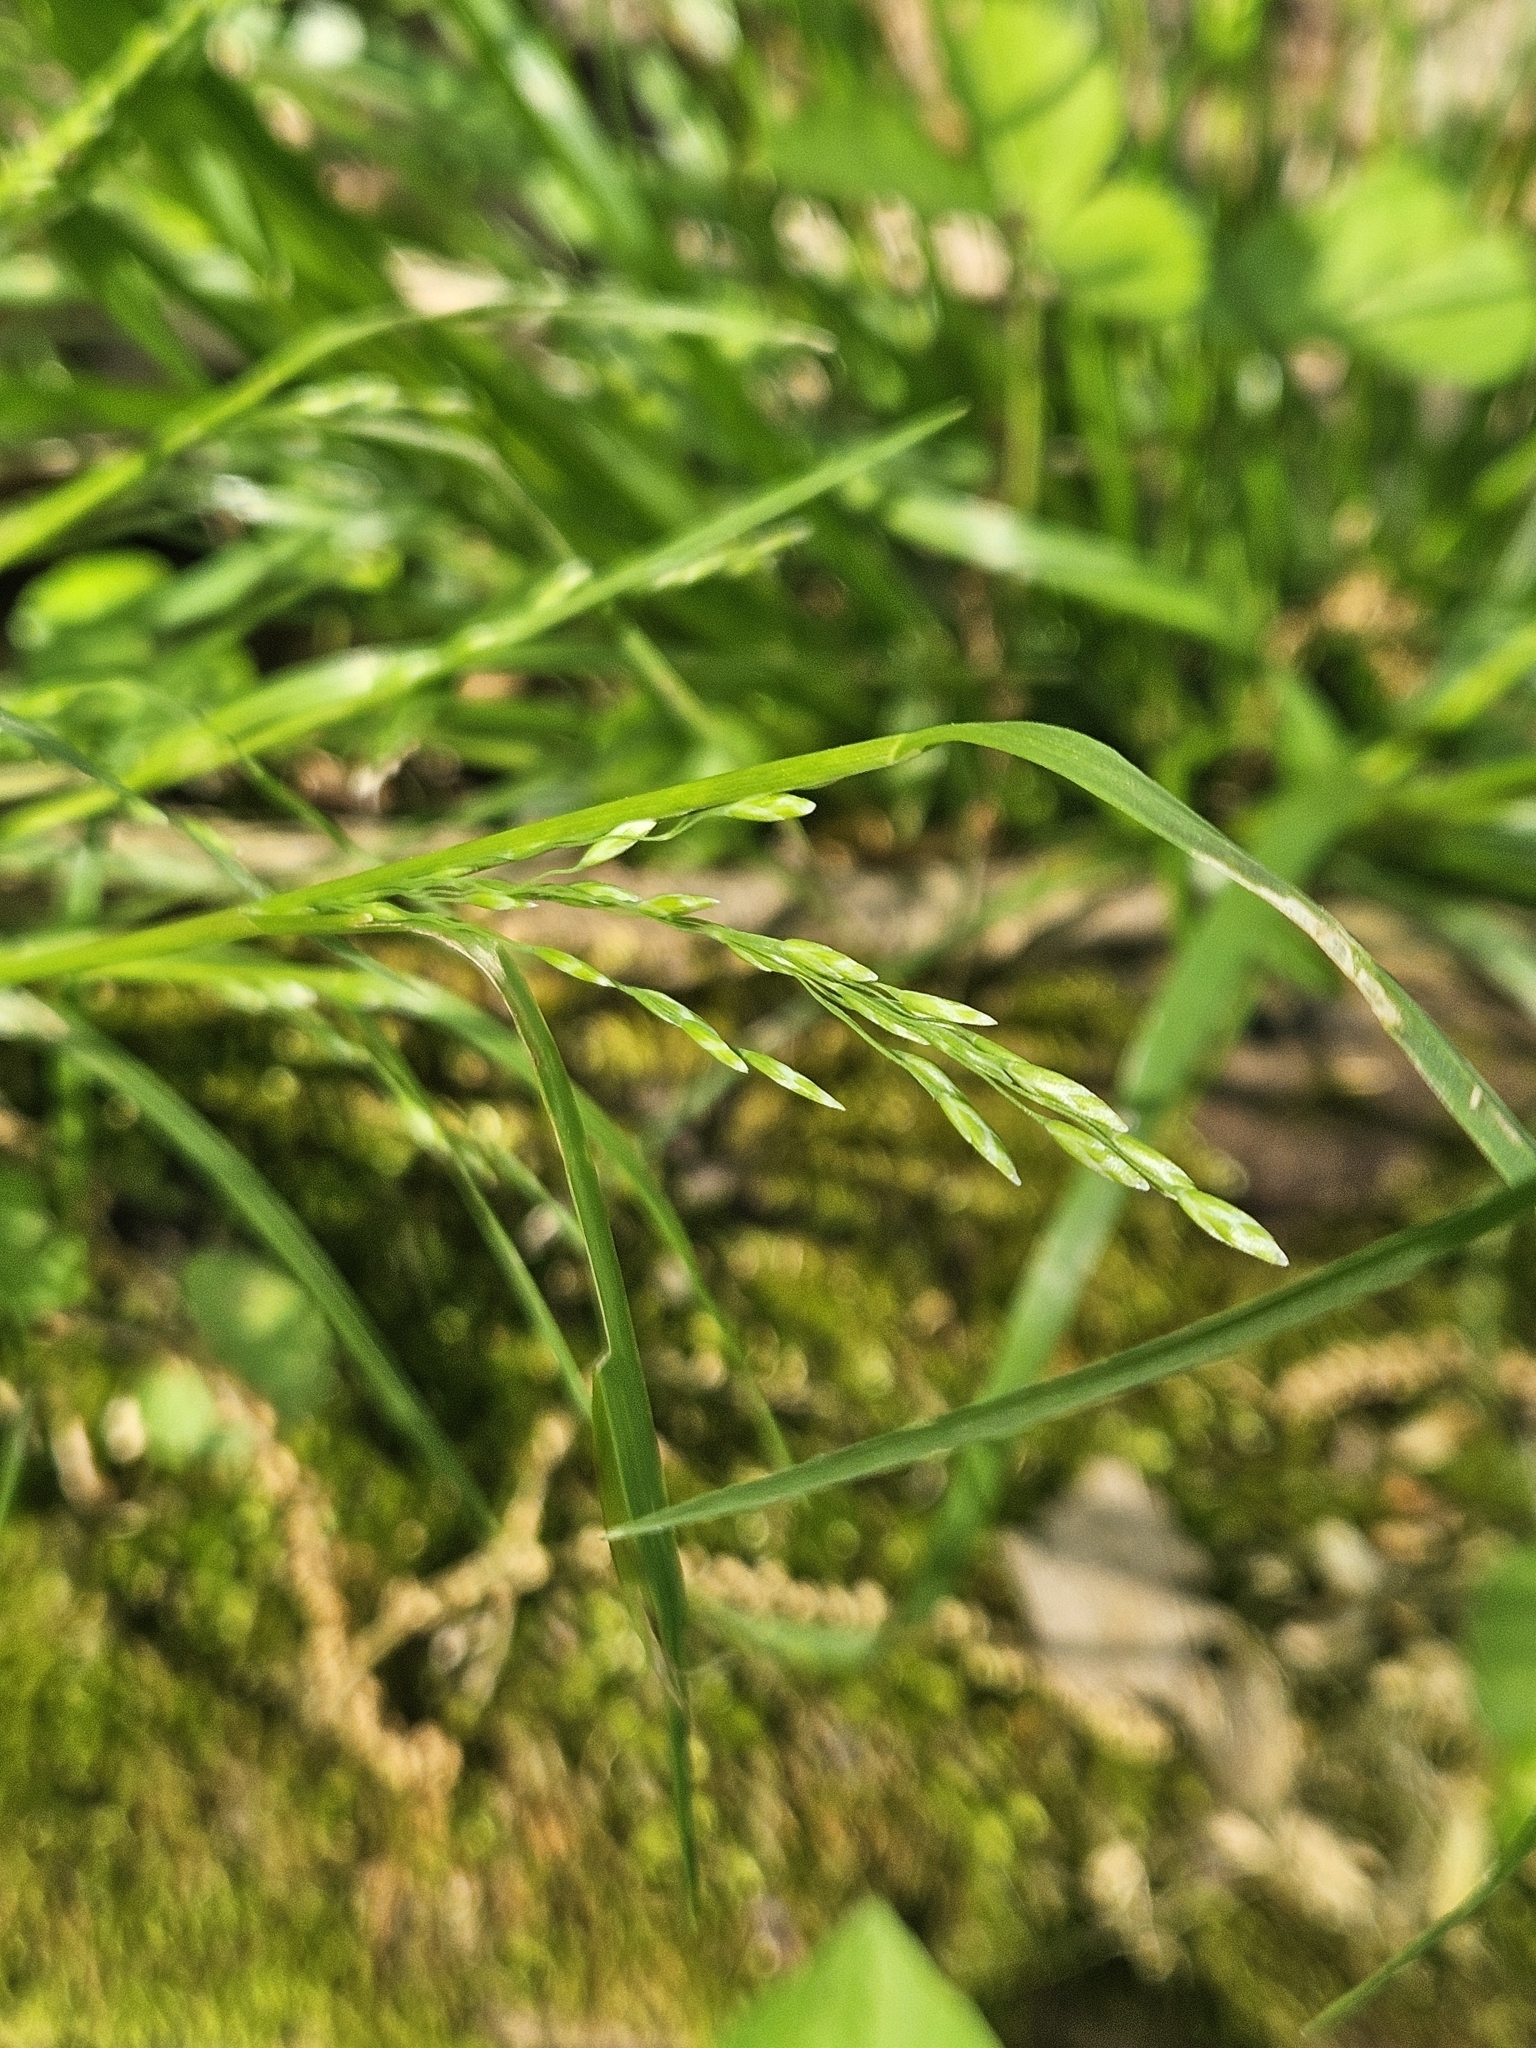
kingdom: Plantae
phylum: Tracheophyta
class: Liliopsida
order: Poales
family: Poaceae
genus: Poa
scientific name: Poa annua
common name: Annual bluegrass
